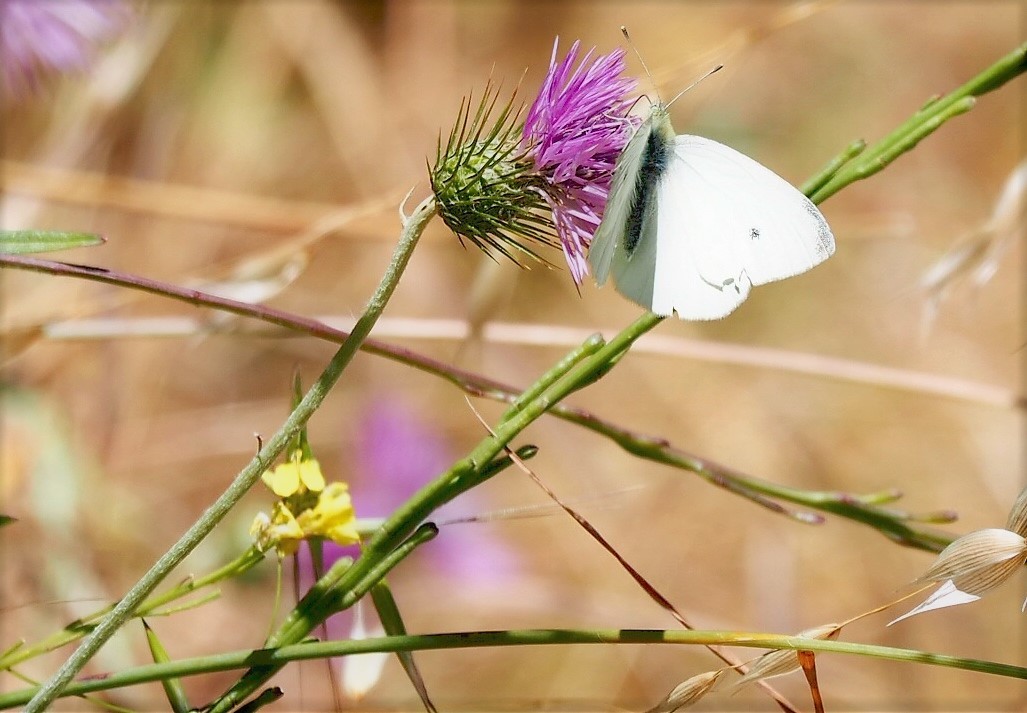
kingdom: Animalia
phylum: Arthropoda
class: Insecta
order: Lepidoptera
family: Pieridae
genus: Pieris
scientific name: Pieris rapae
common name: Small white
